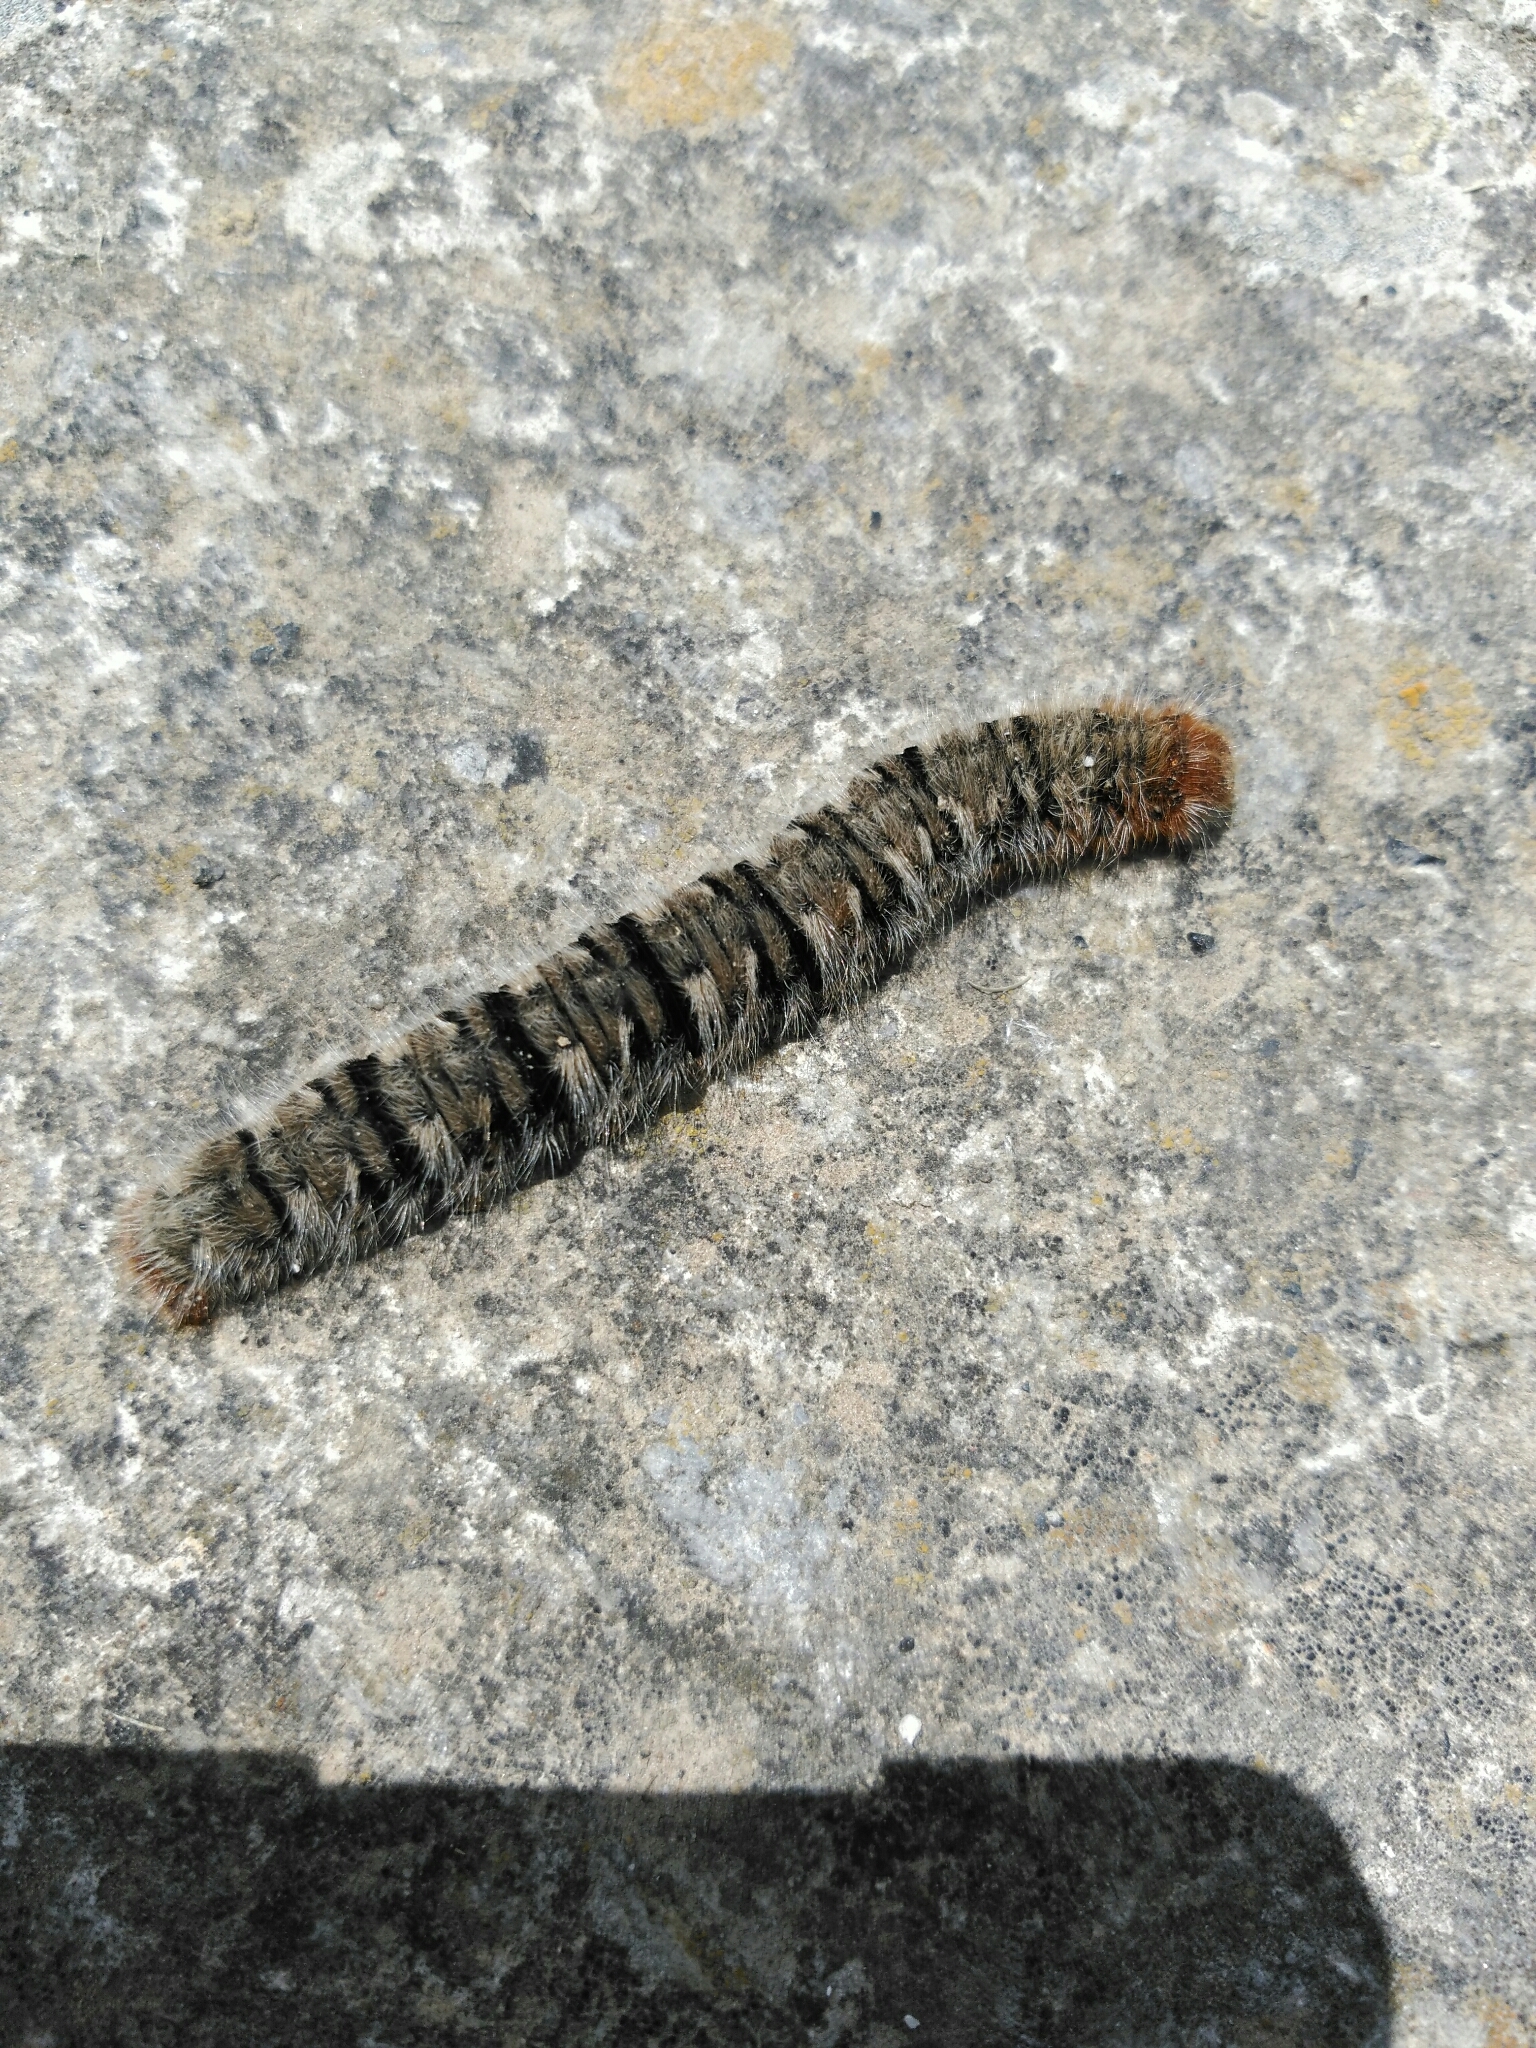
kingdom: Animalia
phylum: Arthropoda
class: Insecta
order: Lepidoptera
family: Lasiocampidae
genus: Lasiocampa
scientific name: Lasiocampa quercus
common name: Oak eggar
